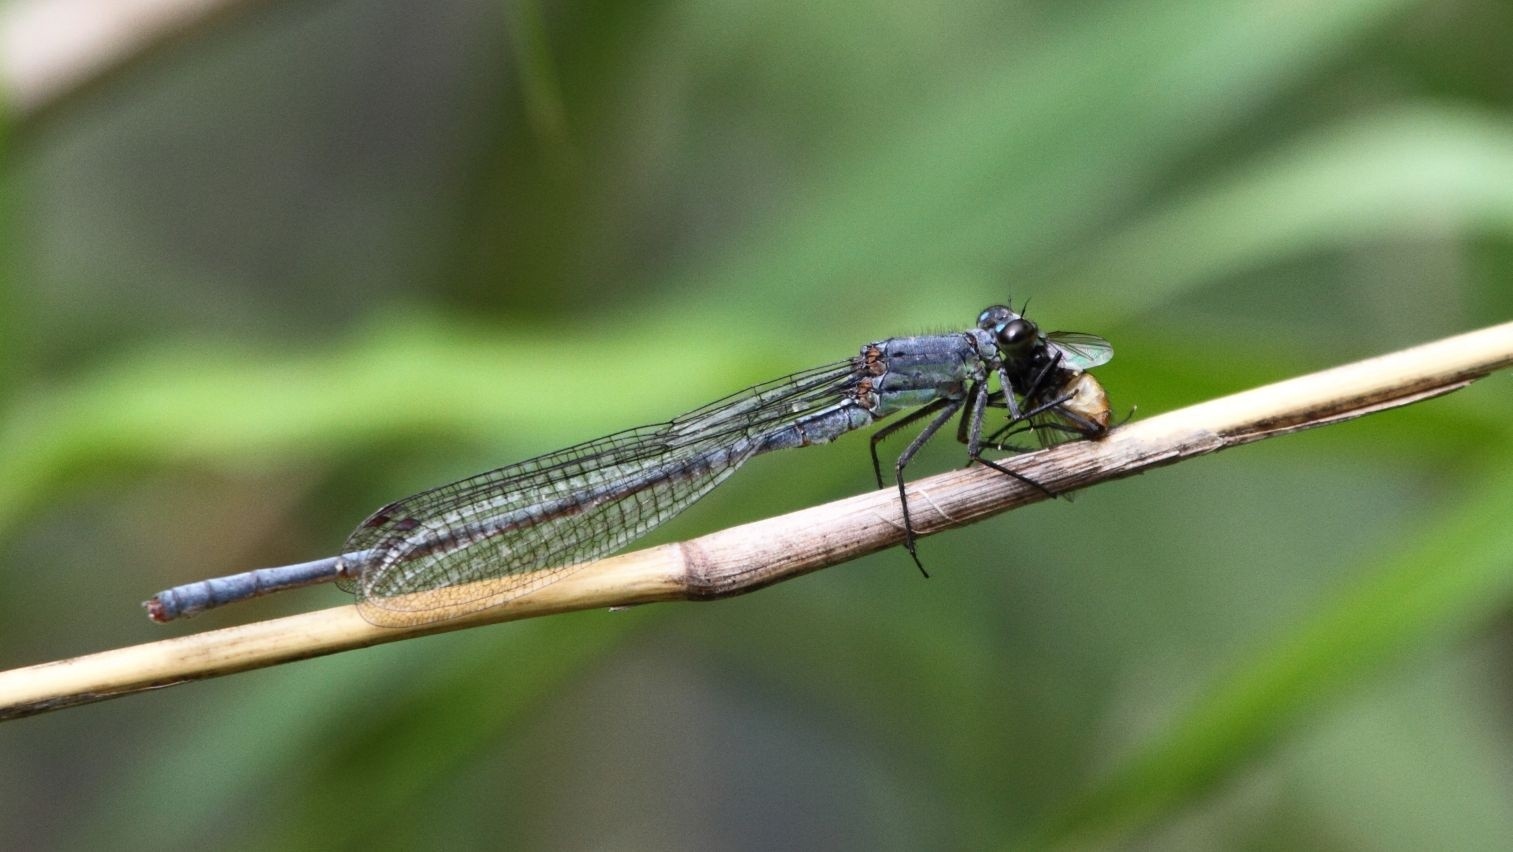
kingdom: Animalia
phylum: Arthropoda
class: Insecta
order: Odonata
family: Coenagrionidae
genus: Pseudagrion
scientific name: Pseudagrion salisburyense
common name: Slate sprite
